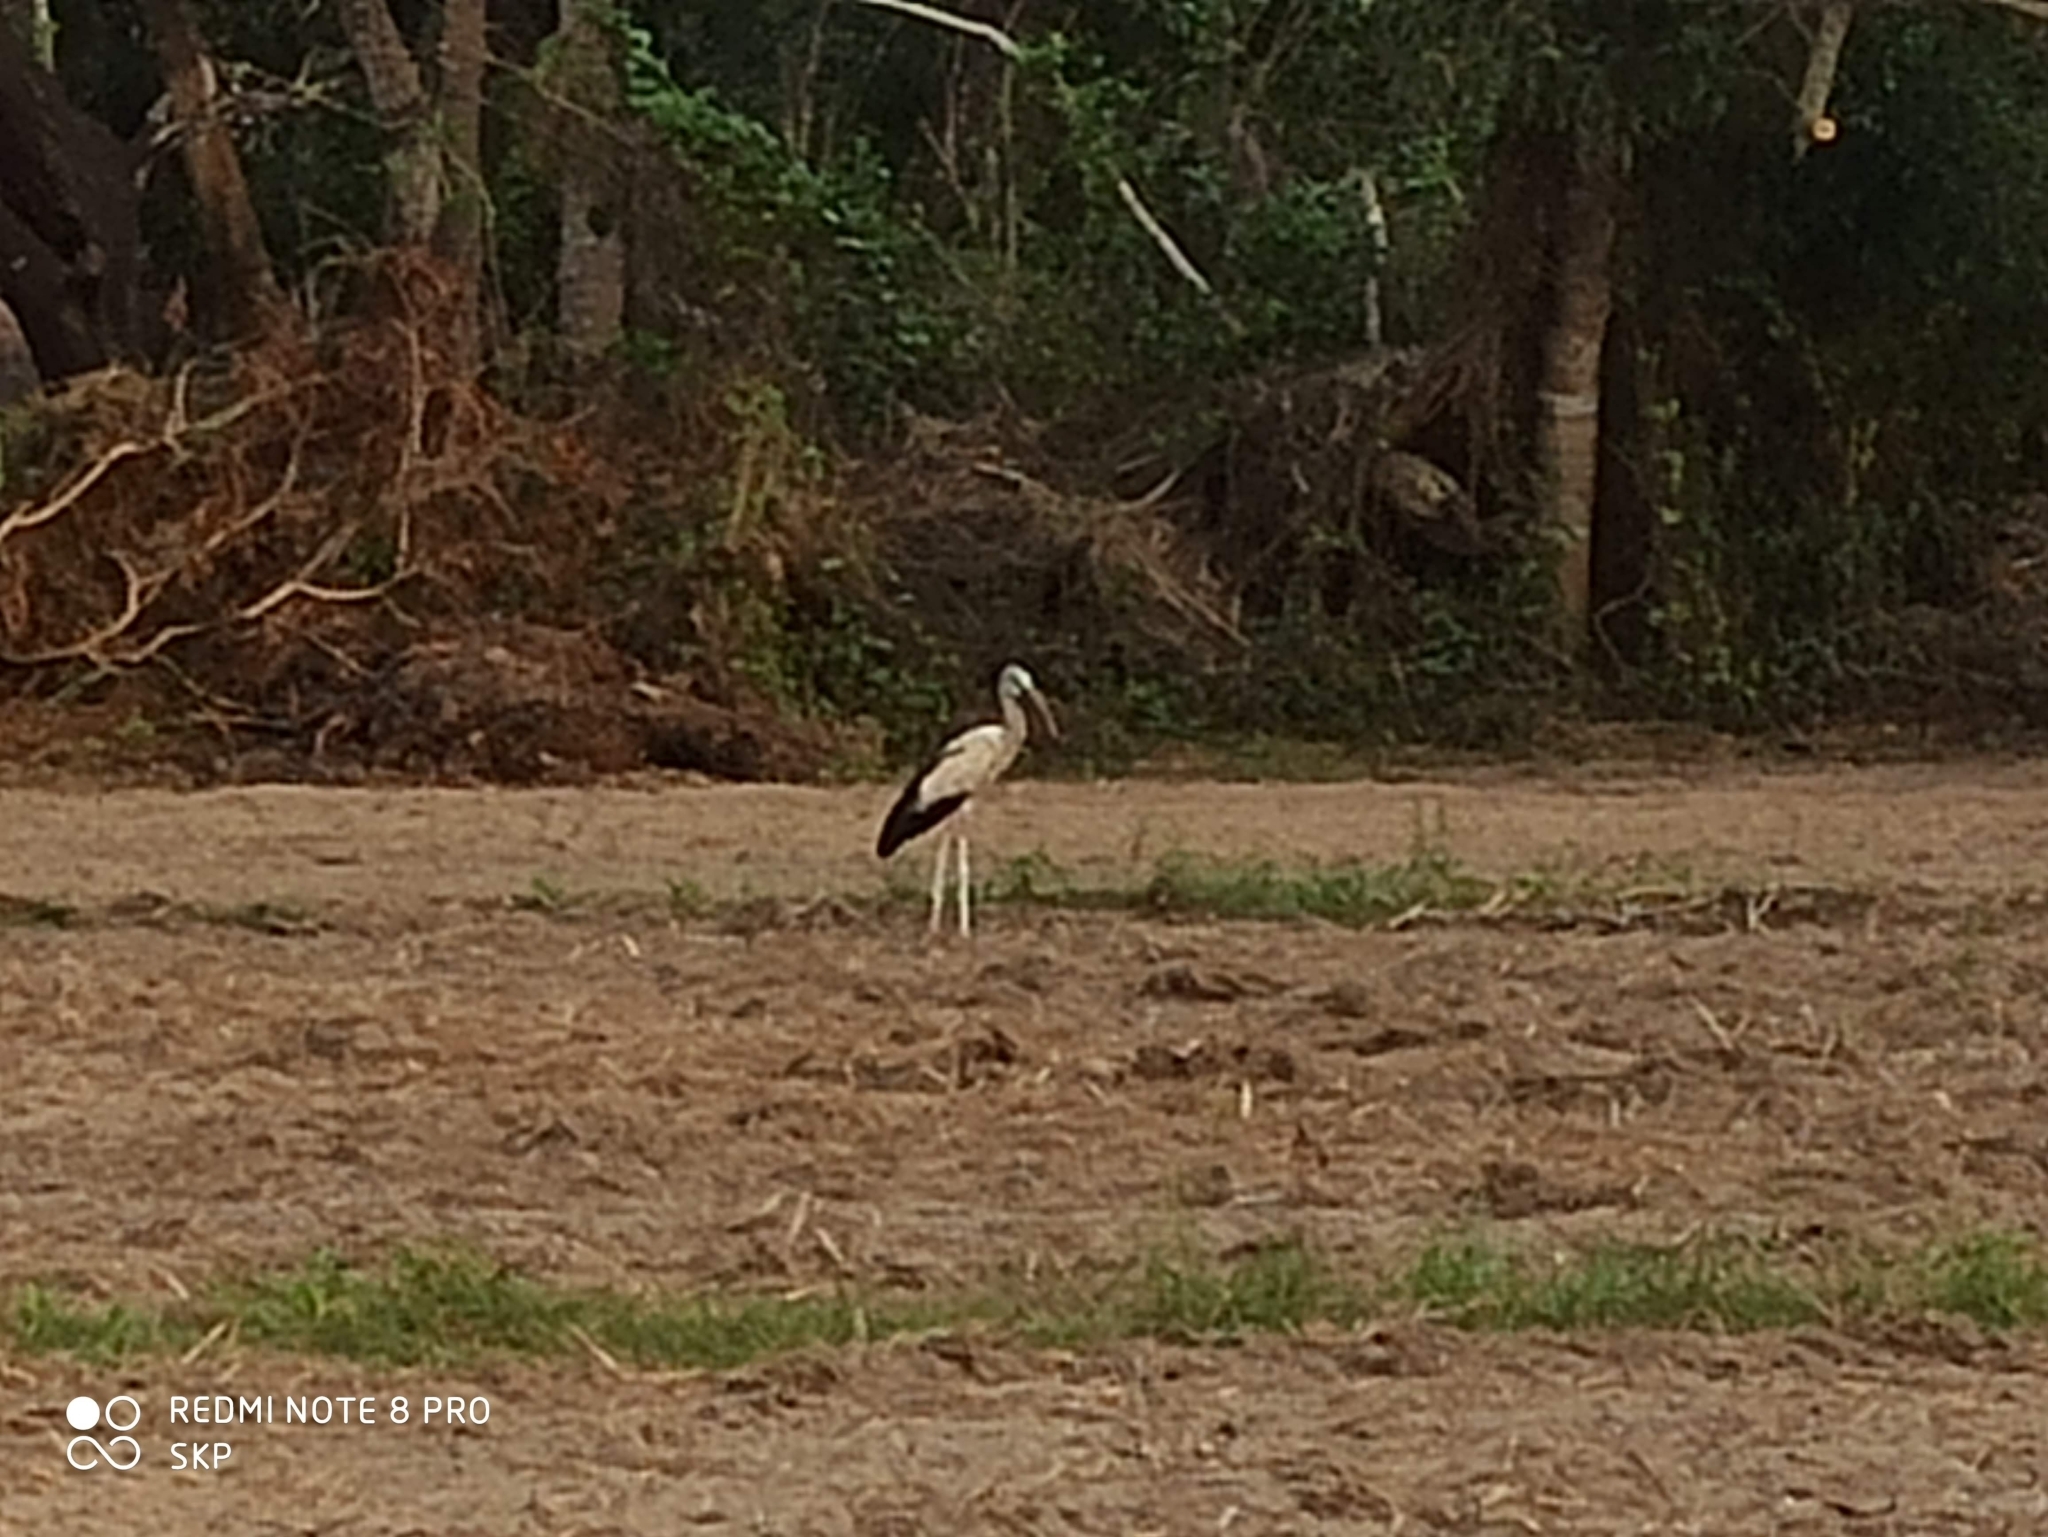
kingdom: Animalia
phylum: Chordata
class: Aves
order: Ciconiiformes
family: Ciconiidae
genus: Anastomus
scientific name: Anastomus oscitans
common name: Asian openbill
